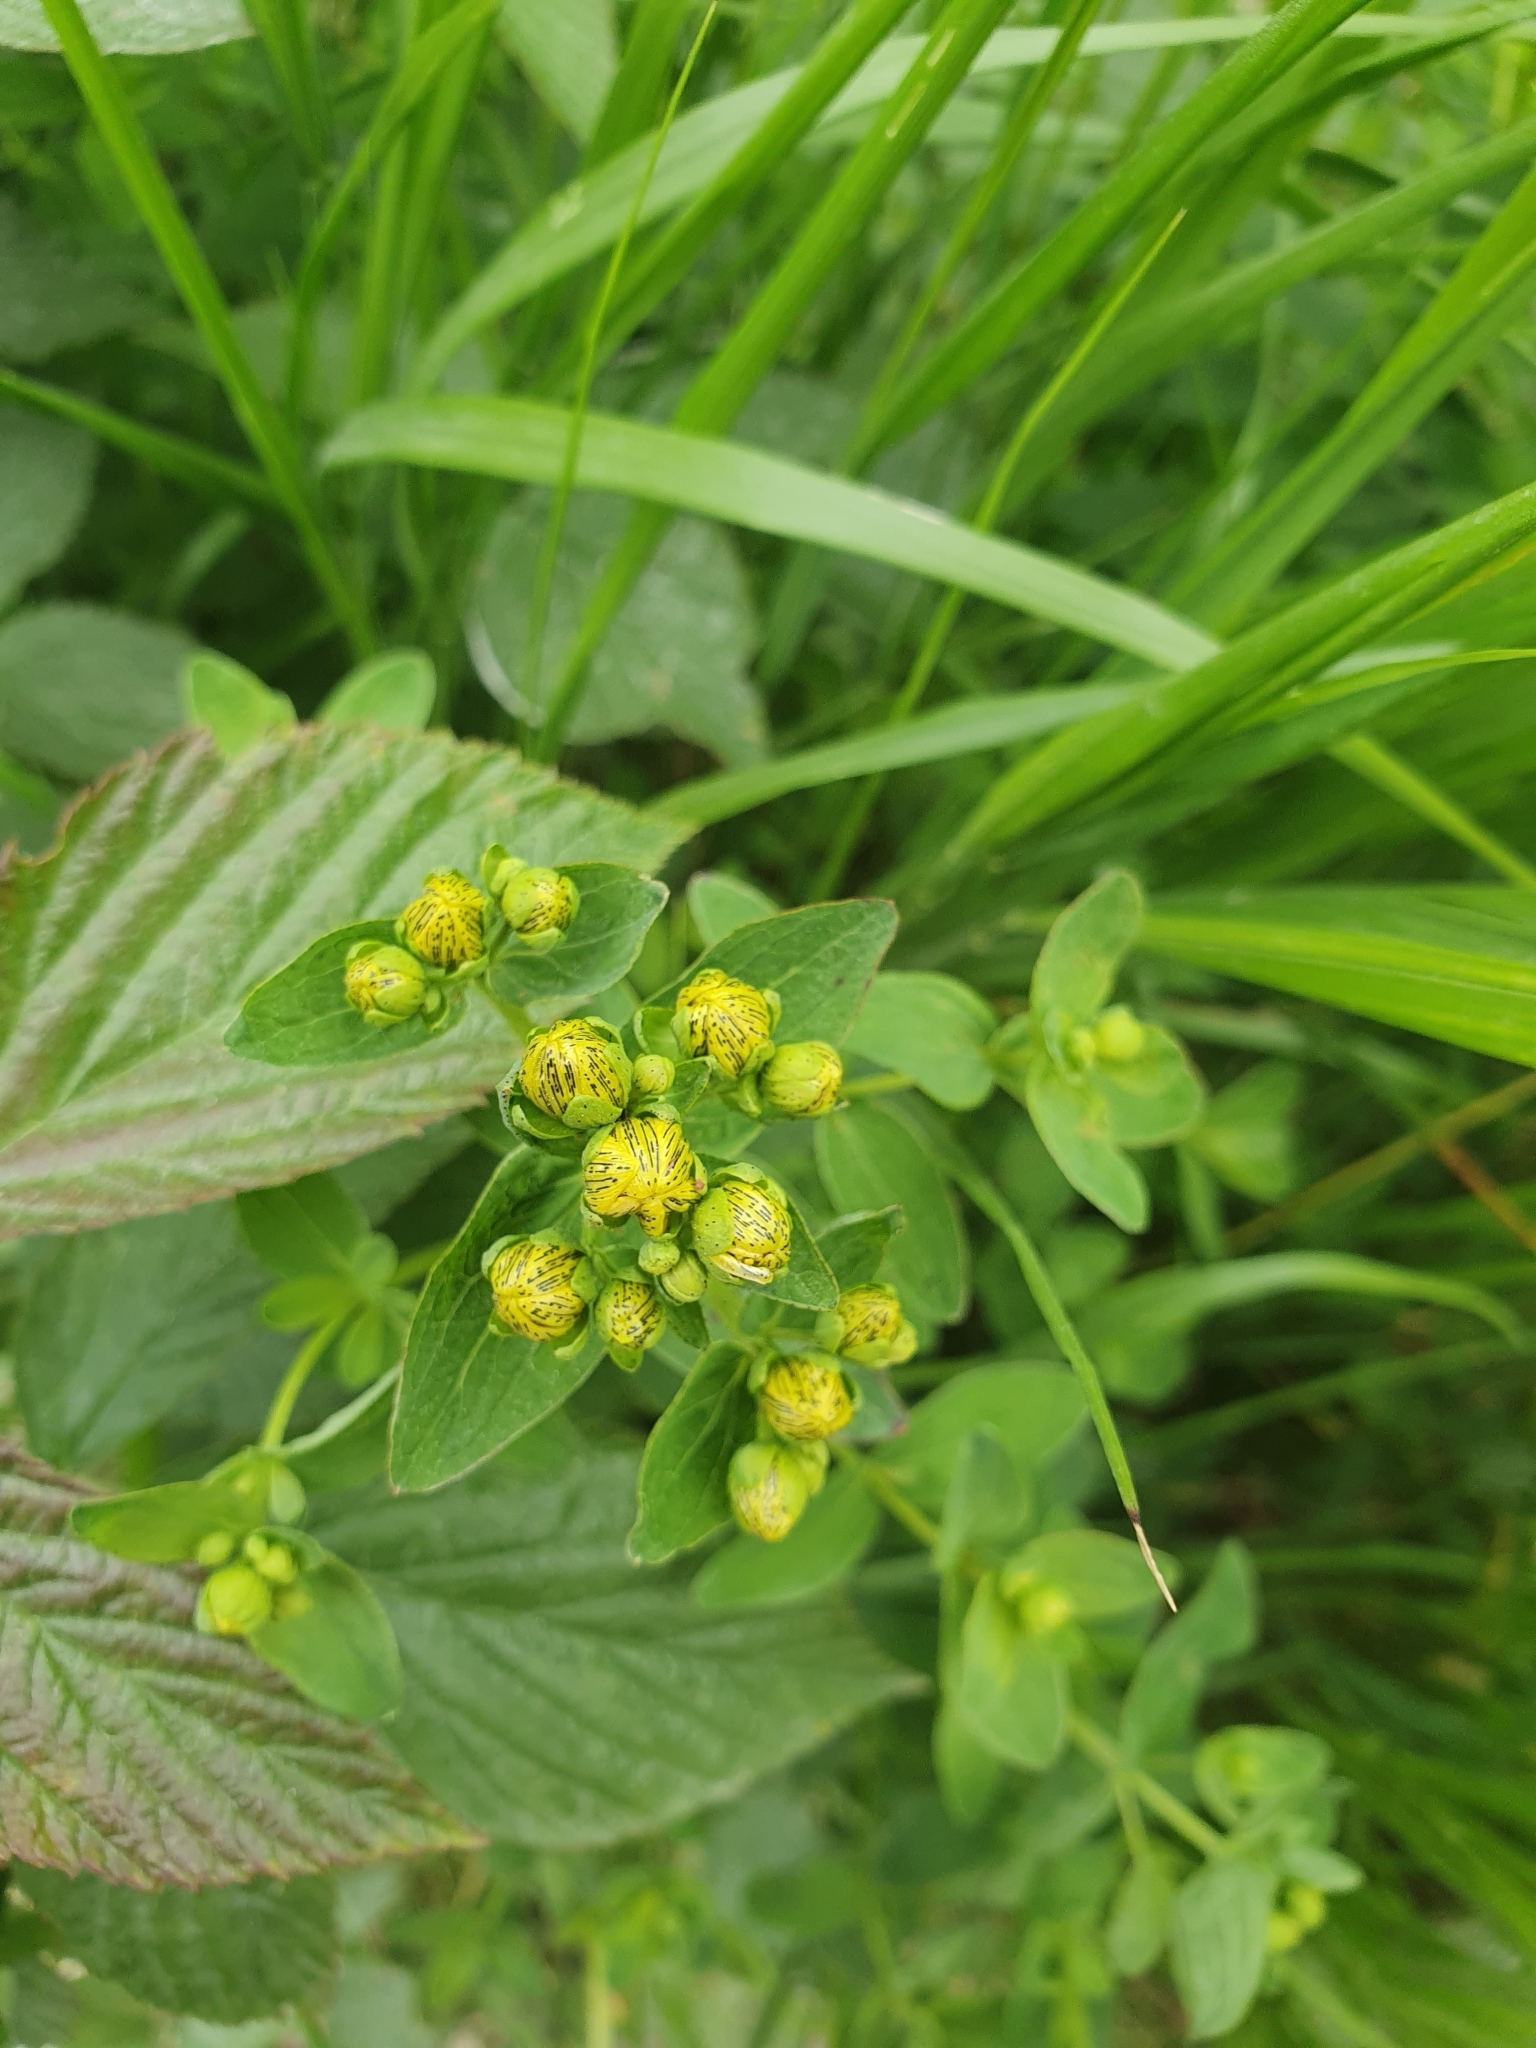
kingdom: Plantae
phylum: Tracheophyta
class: Magnoliopsida
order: Malpighiales
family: Hypericaceae
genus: Hypericum
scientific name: Hypericum maculatum
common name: Imperforate st. john's-wort
